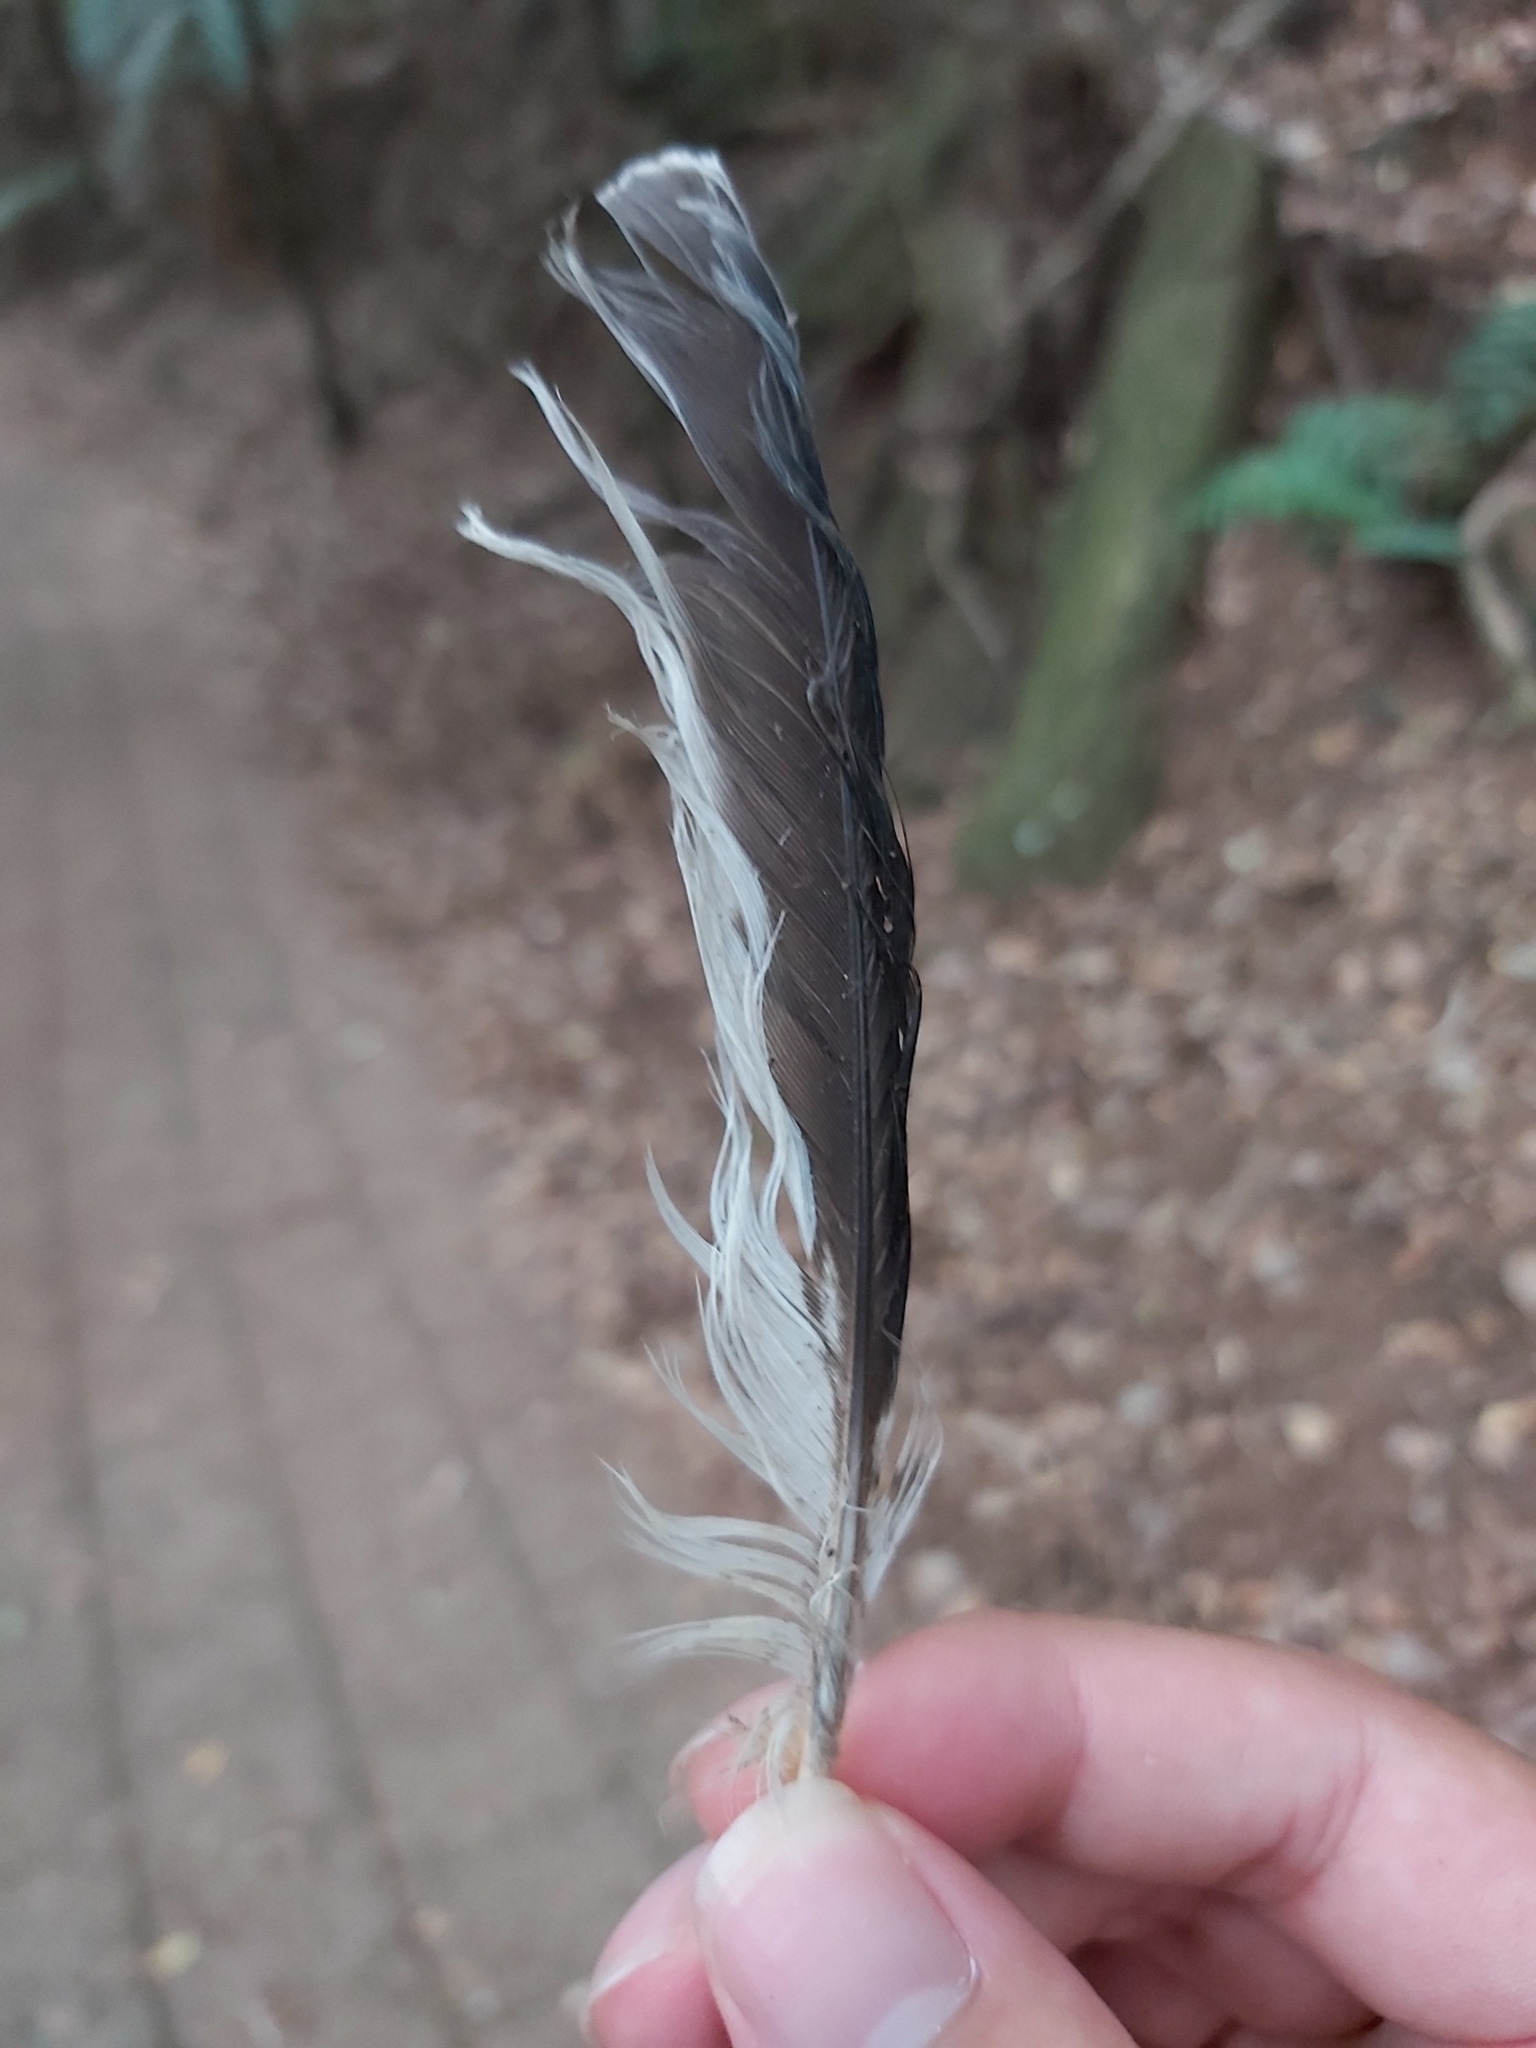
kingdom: Animalia
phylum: Chordata
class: Aves
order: Coraciiformes
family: Alcedinidae
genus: Dacelo
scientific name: Dacelo novaeguineae
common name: Laughing kookaburra
